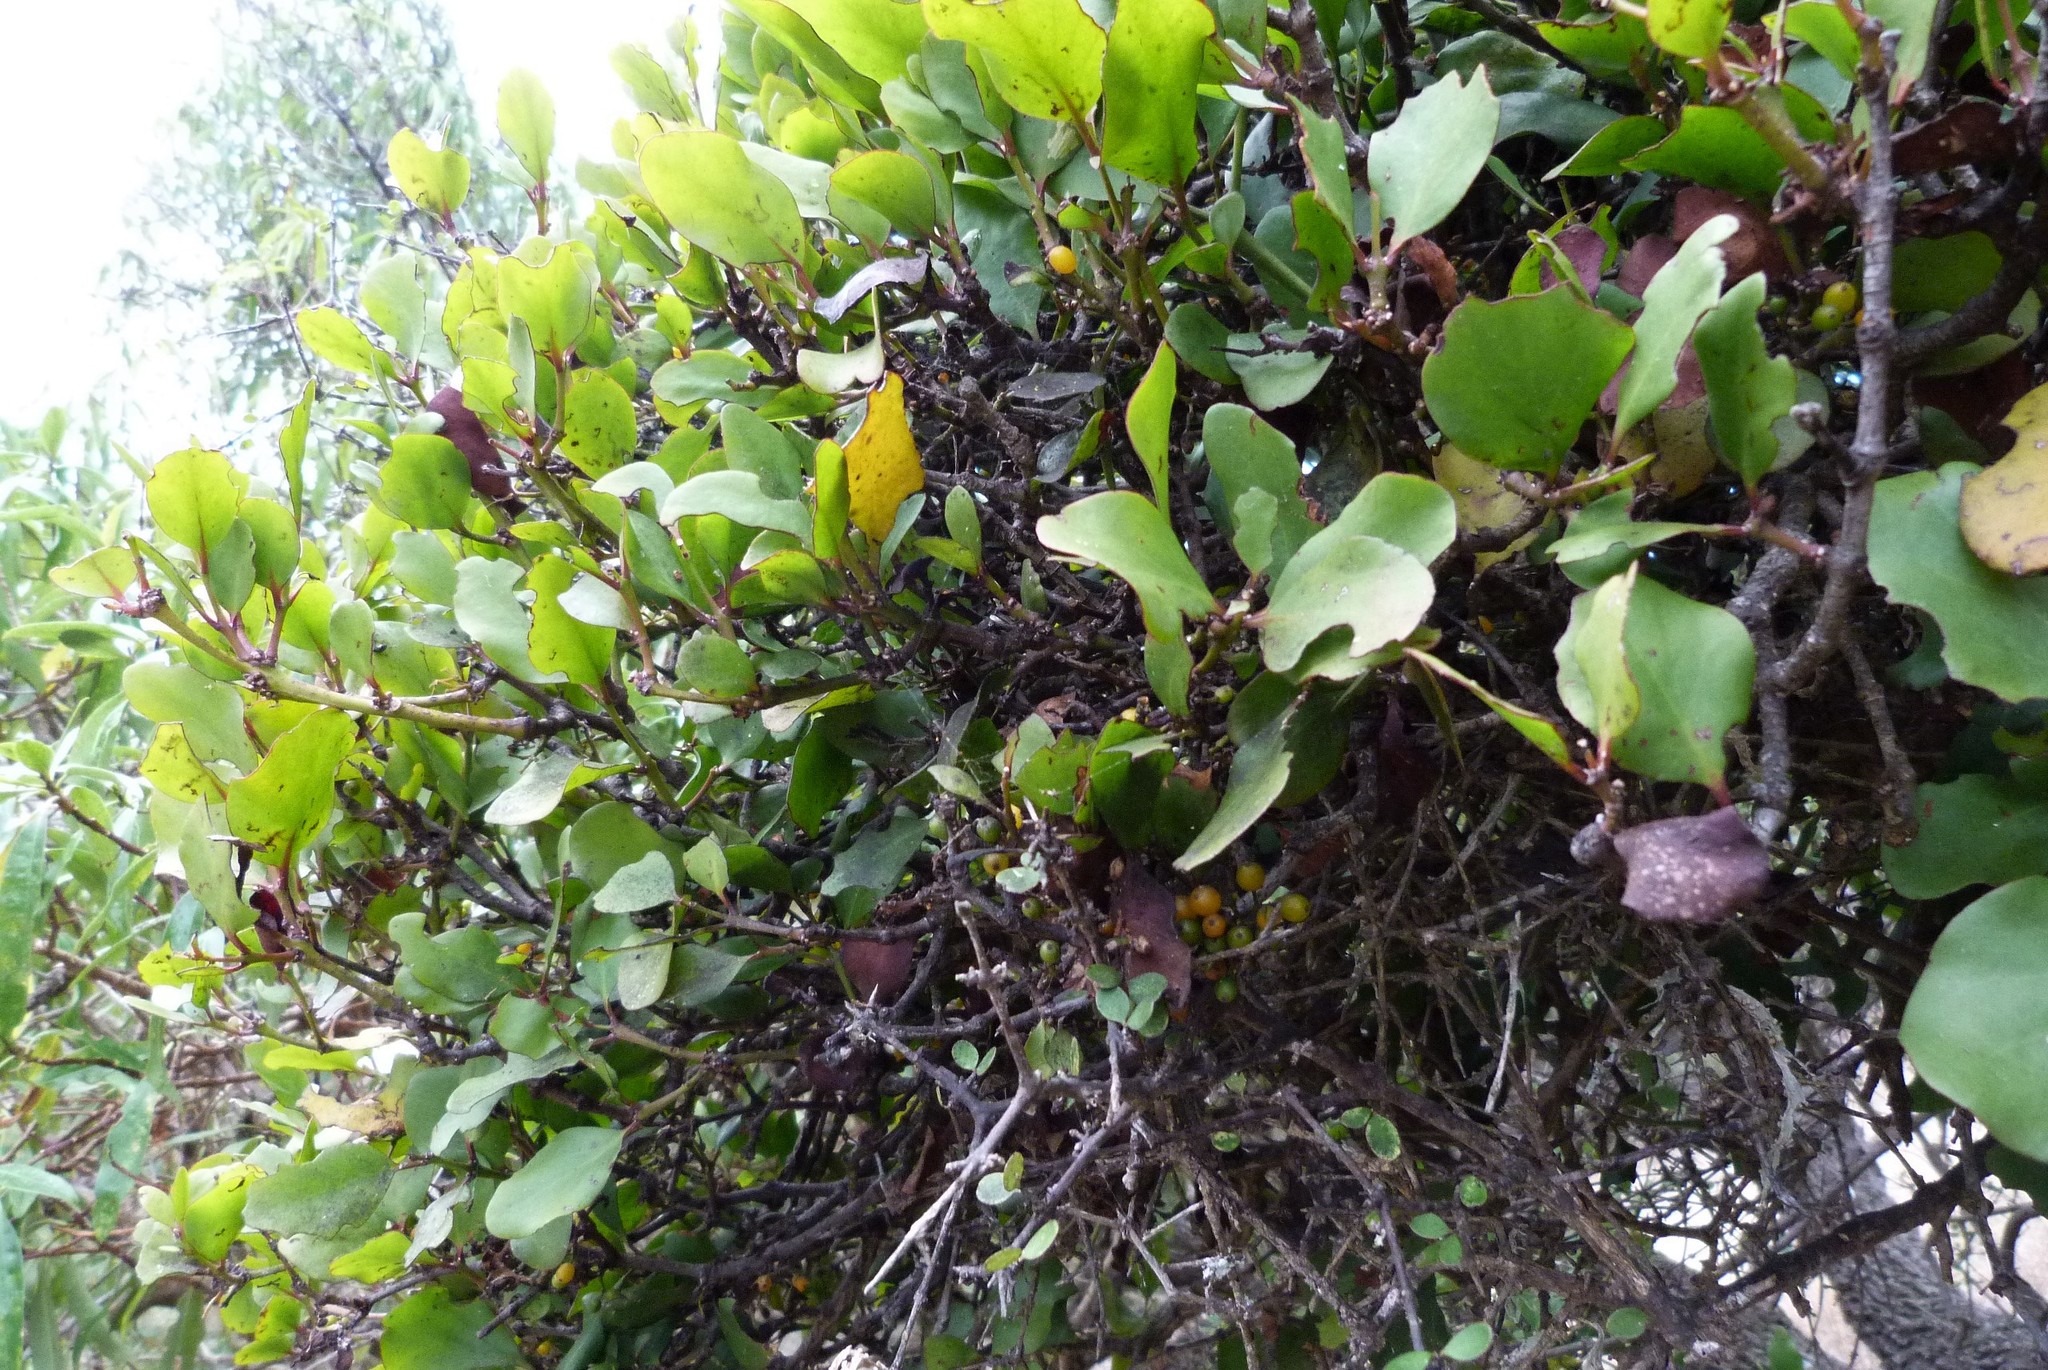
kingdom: Plantae
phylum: Tracheophyta
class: Magnoliopsida
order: Santalales
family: Loranthaceae
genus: Ileostylus
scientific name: Ileostylus micranthus
